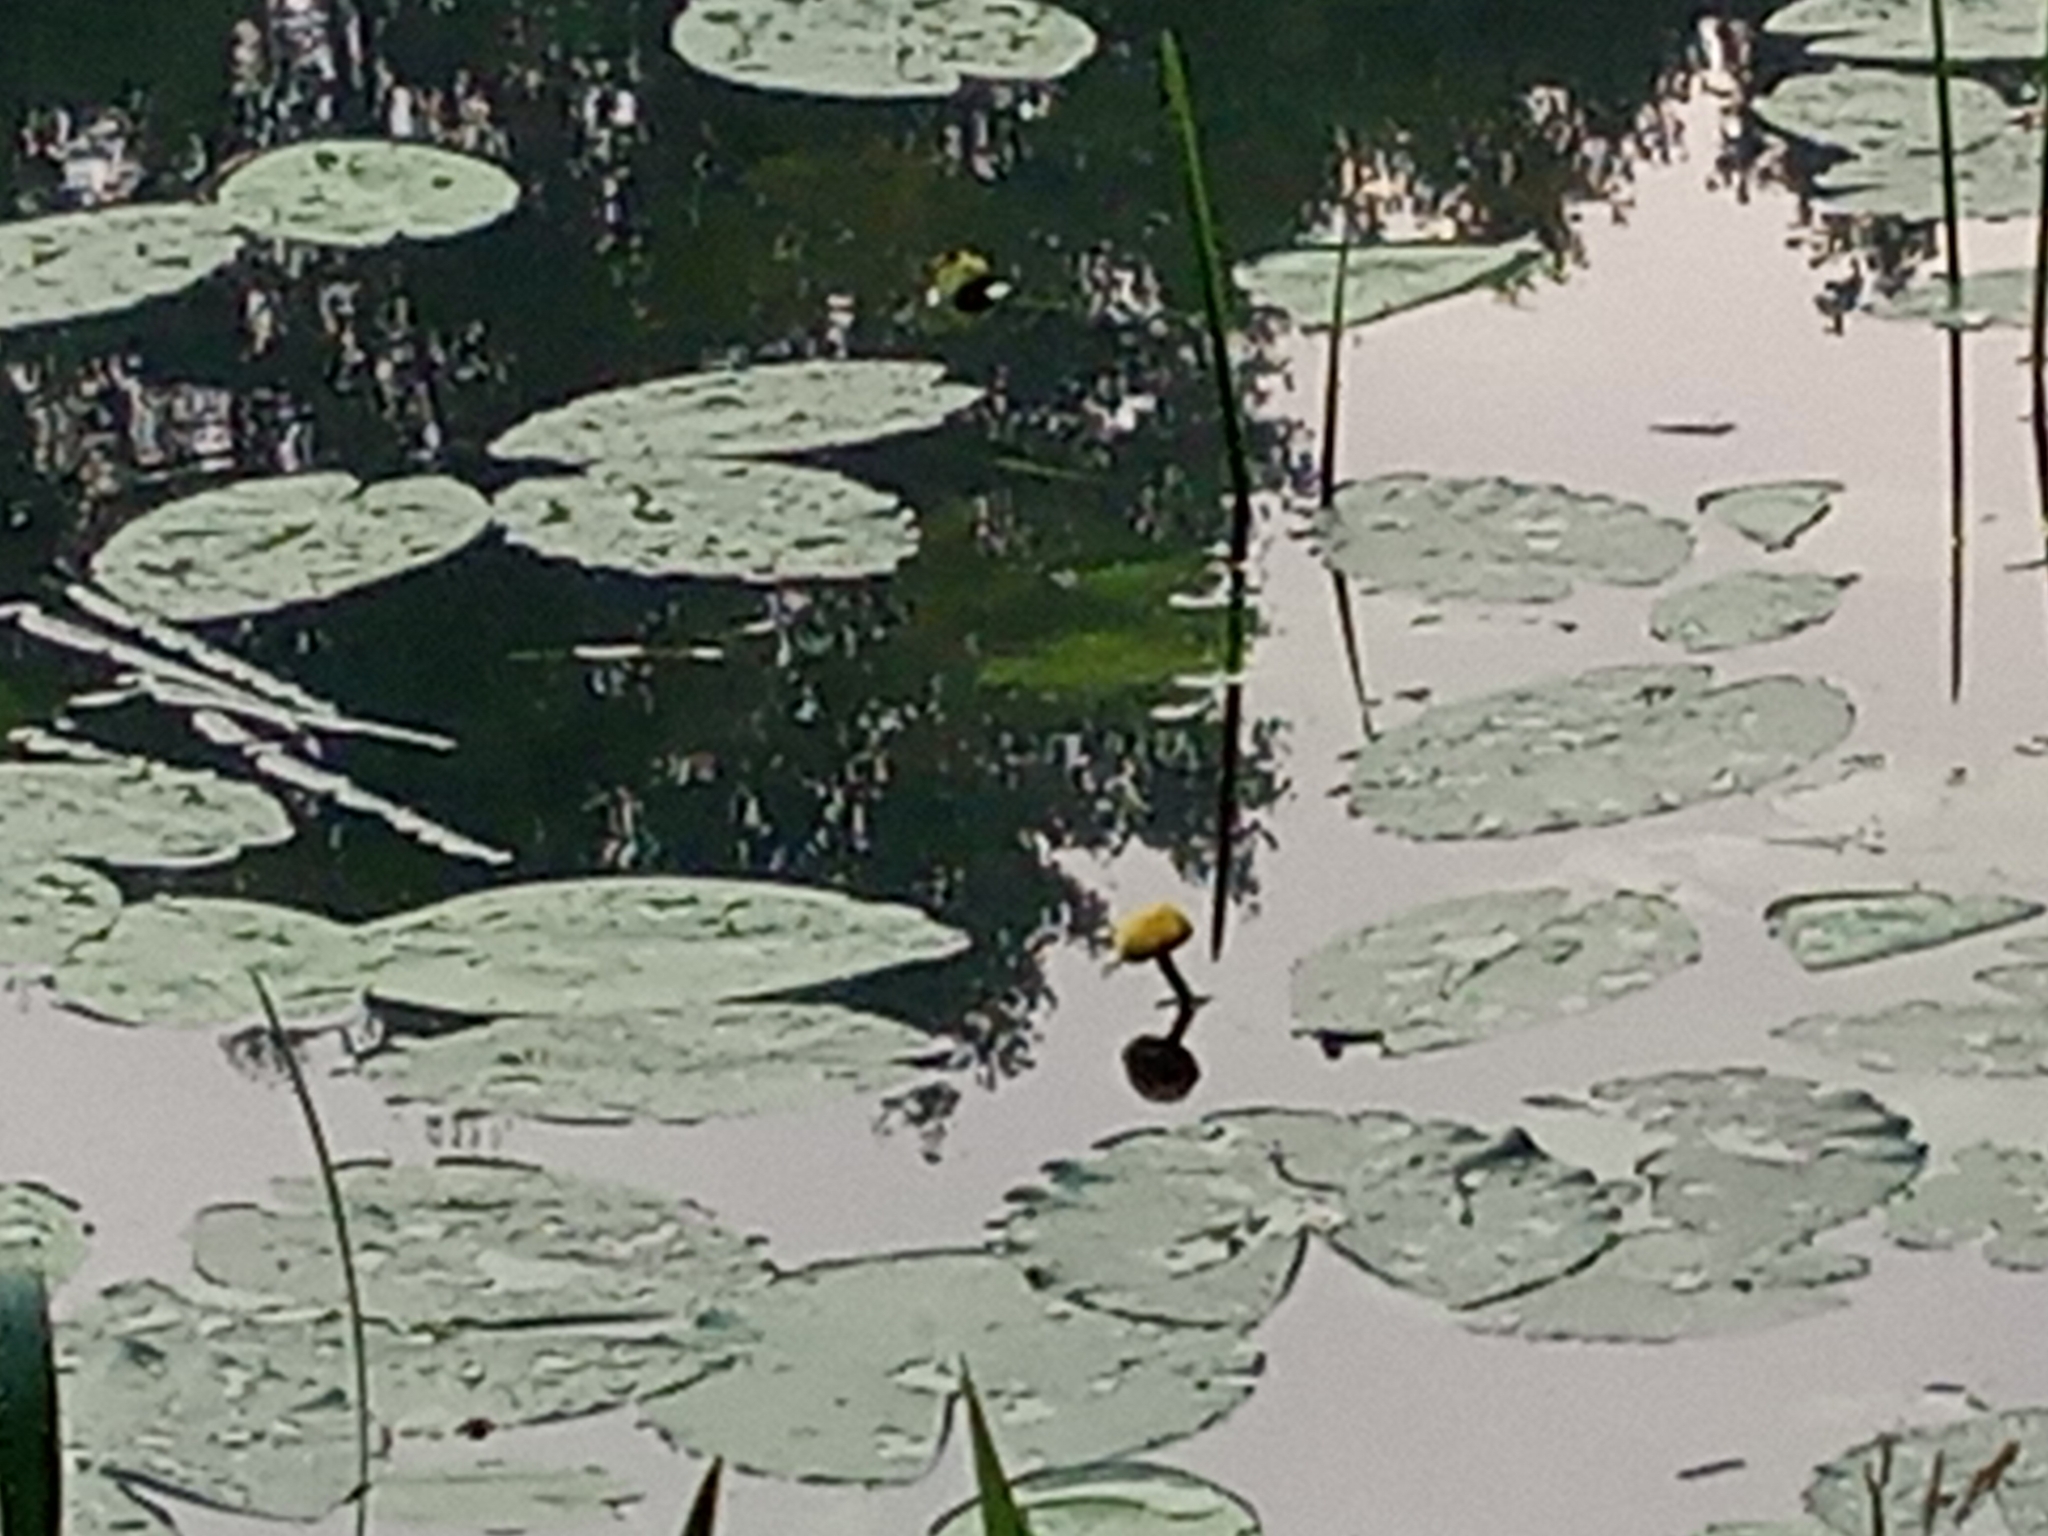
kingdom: Plantae
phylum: Tracheophyta
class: Magnoliopsida
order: Nymphaeales
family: Nymphaeaceae
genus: Nuphar
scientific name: Nuphar lutea
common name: Yellow water-lily
